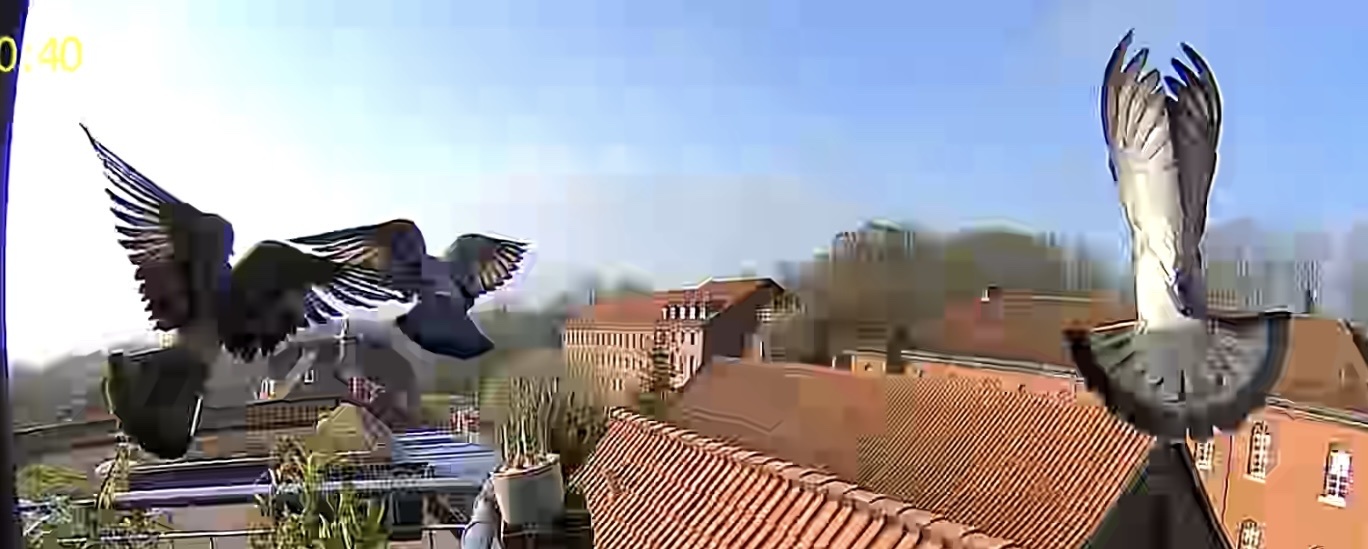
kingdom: Animalia
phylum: Chordata
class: Aves
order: Columbiformes
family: Columbidae
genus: Columba
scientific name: Columba livia
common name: Rock pigeon
